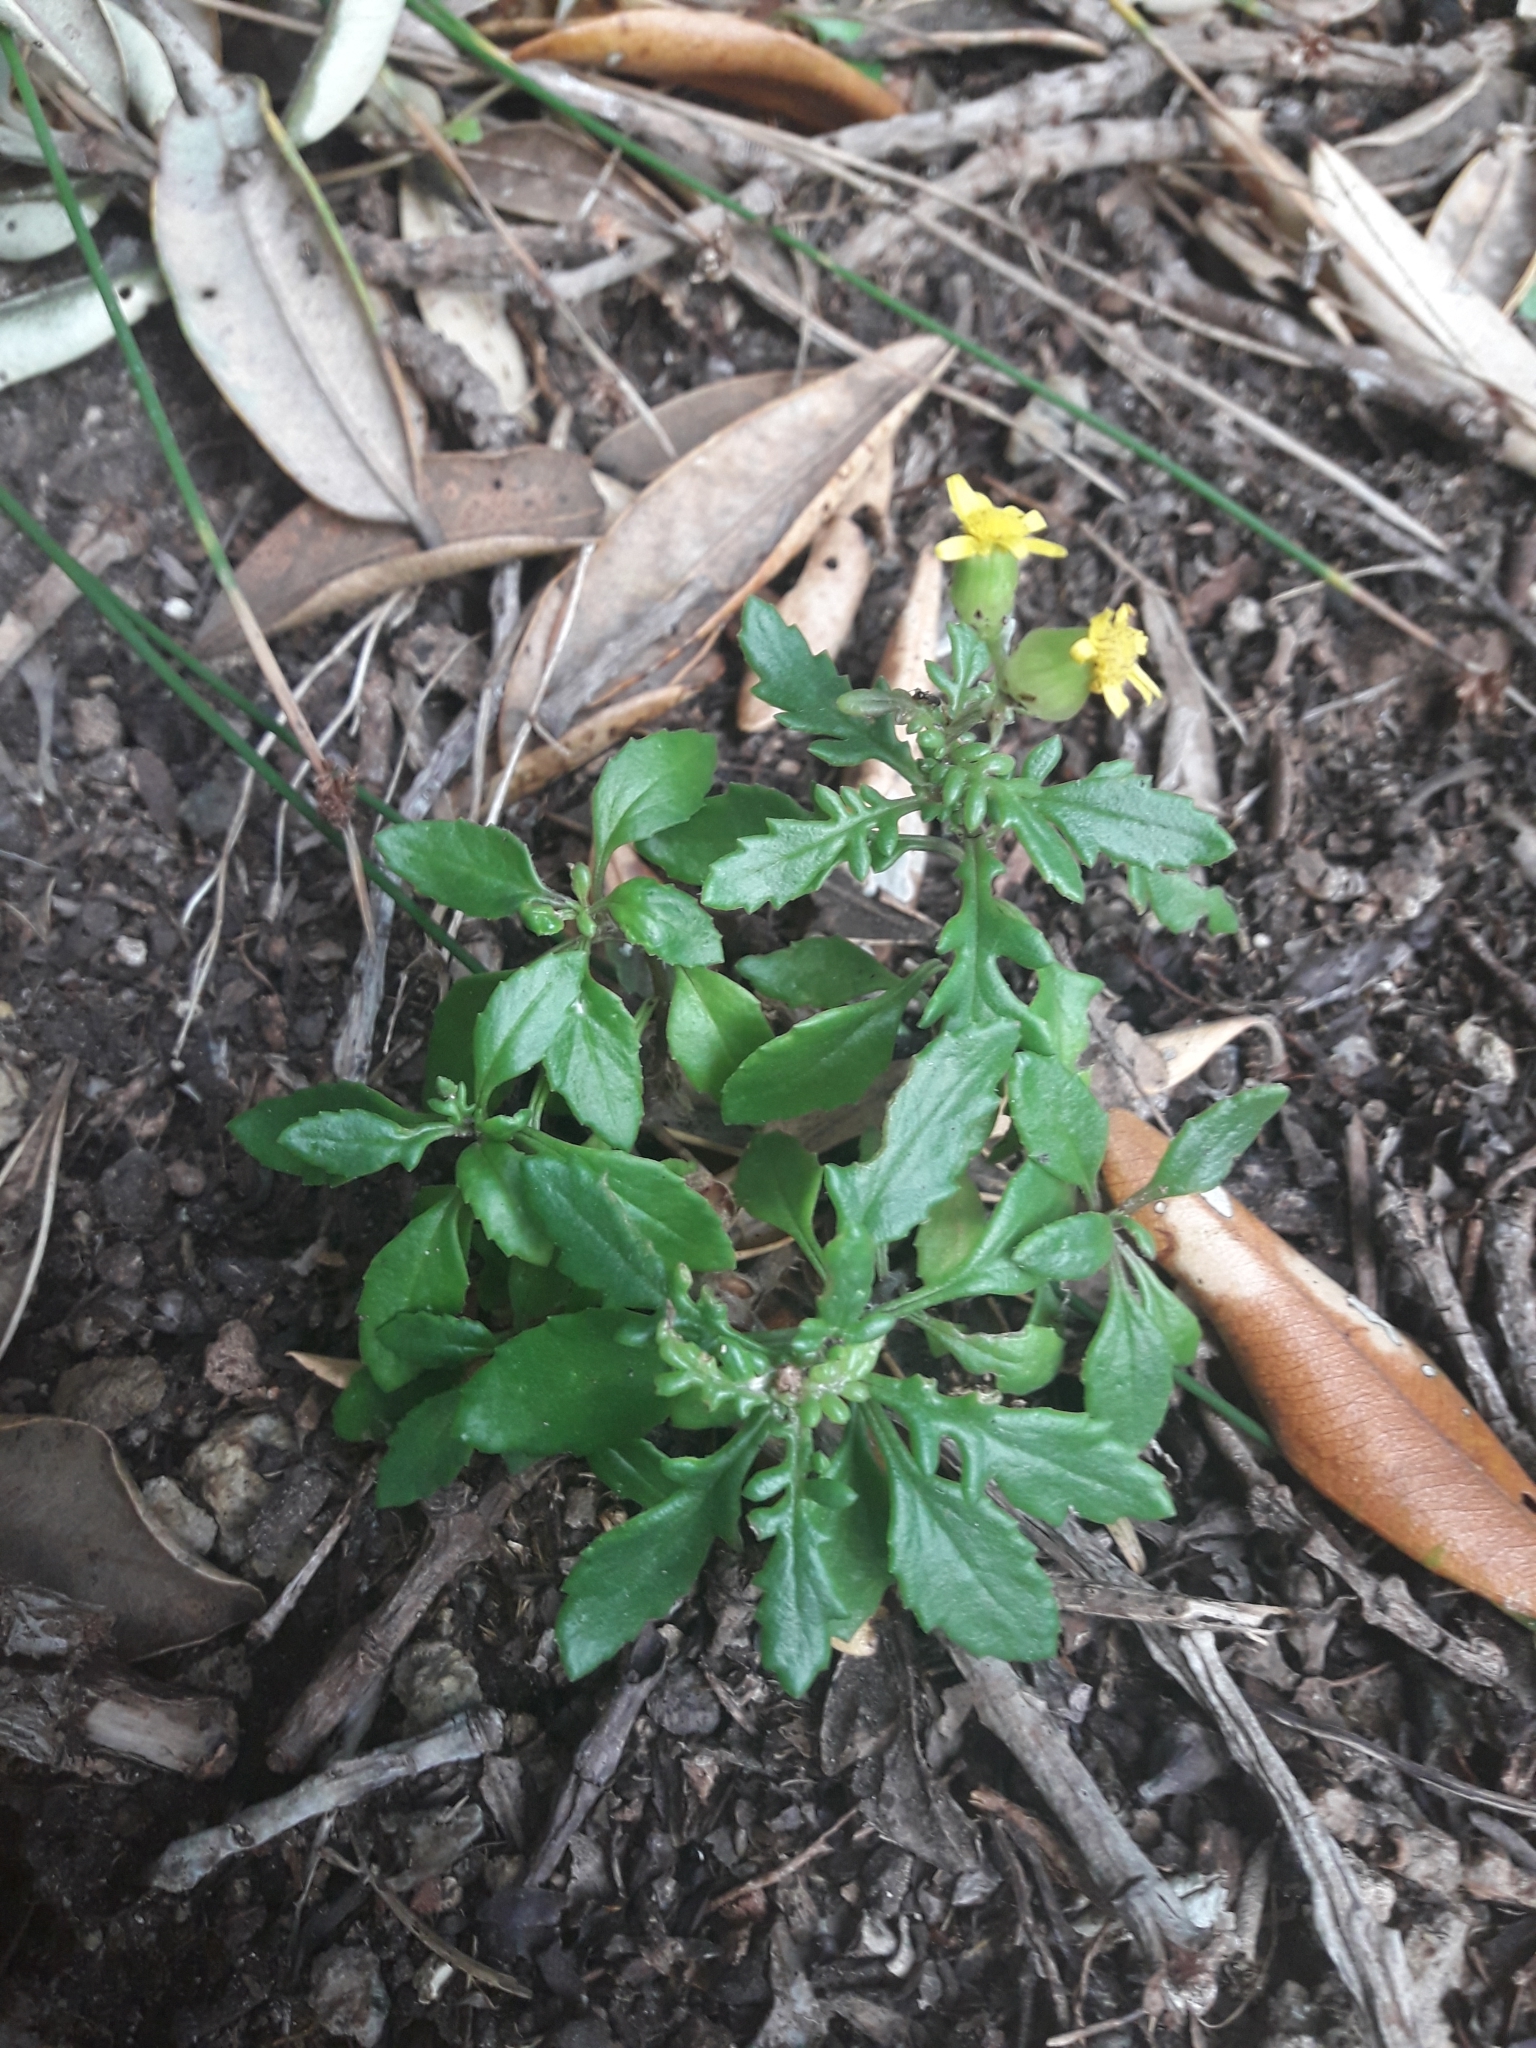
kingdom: Plantae
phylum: Tracheophyta
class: Magnoliopsida
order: Asterales
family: Asteraceae
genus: Senecio
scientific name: Senecio lautus
